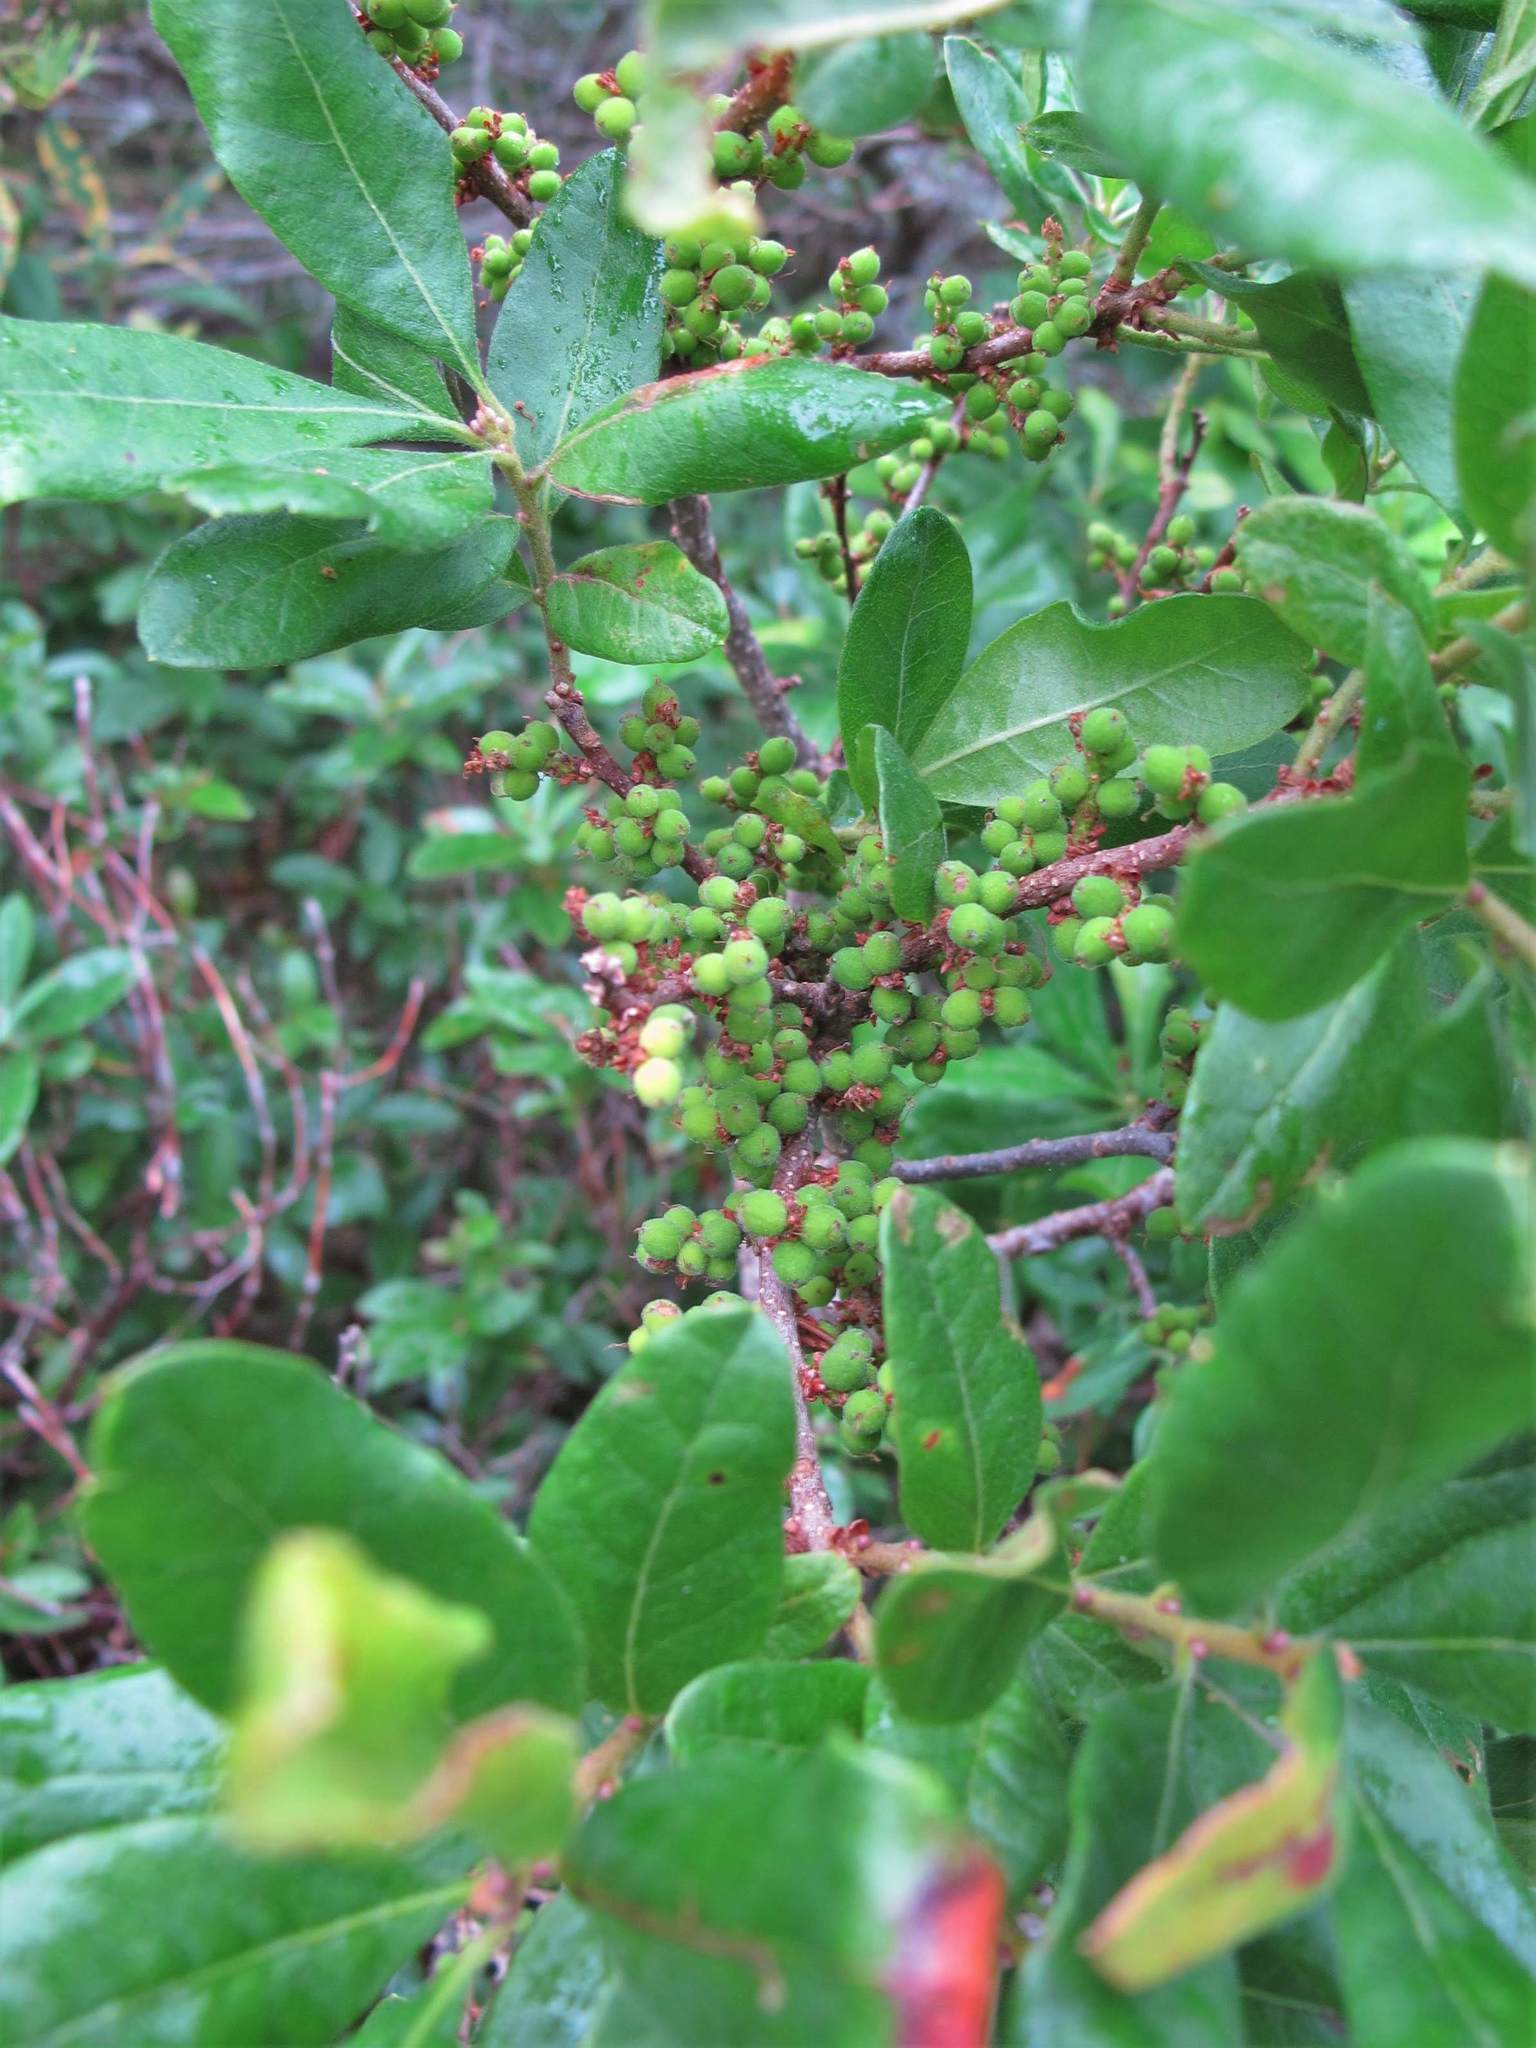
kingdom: Plantae
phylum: Tracheophyta
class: Magnoliopsida
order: Fagales
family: Myricaceae
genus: Morella
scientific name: Morella pensylvanica
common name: Northern bayberry
